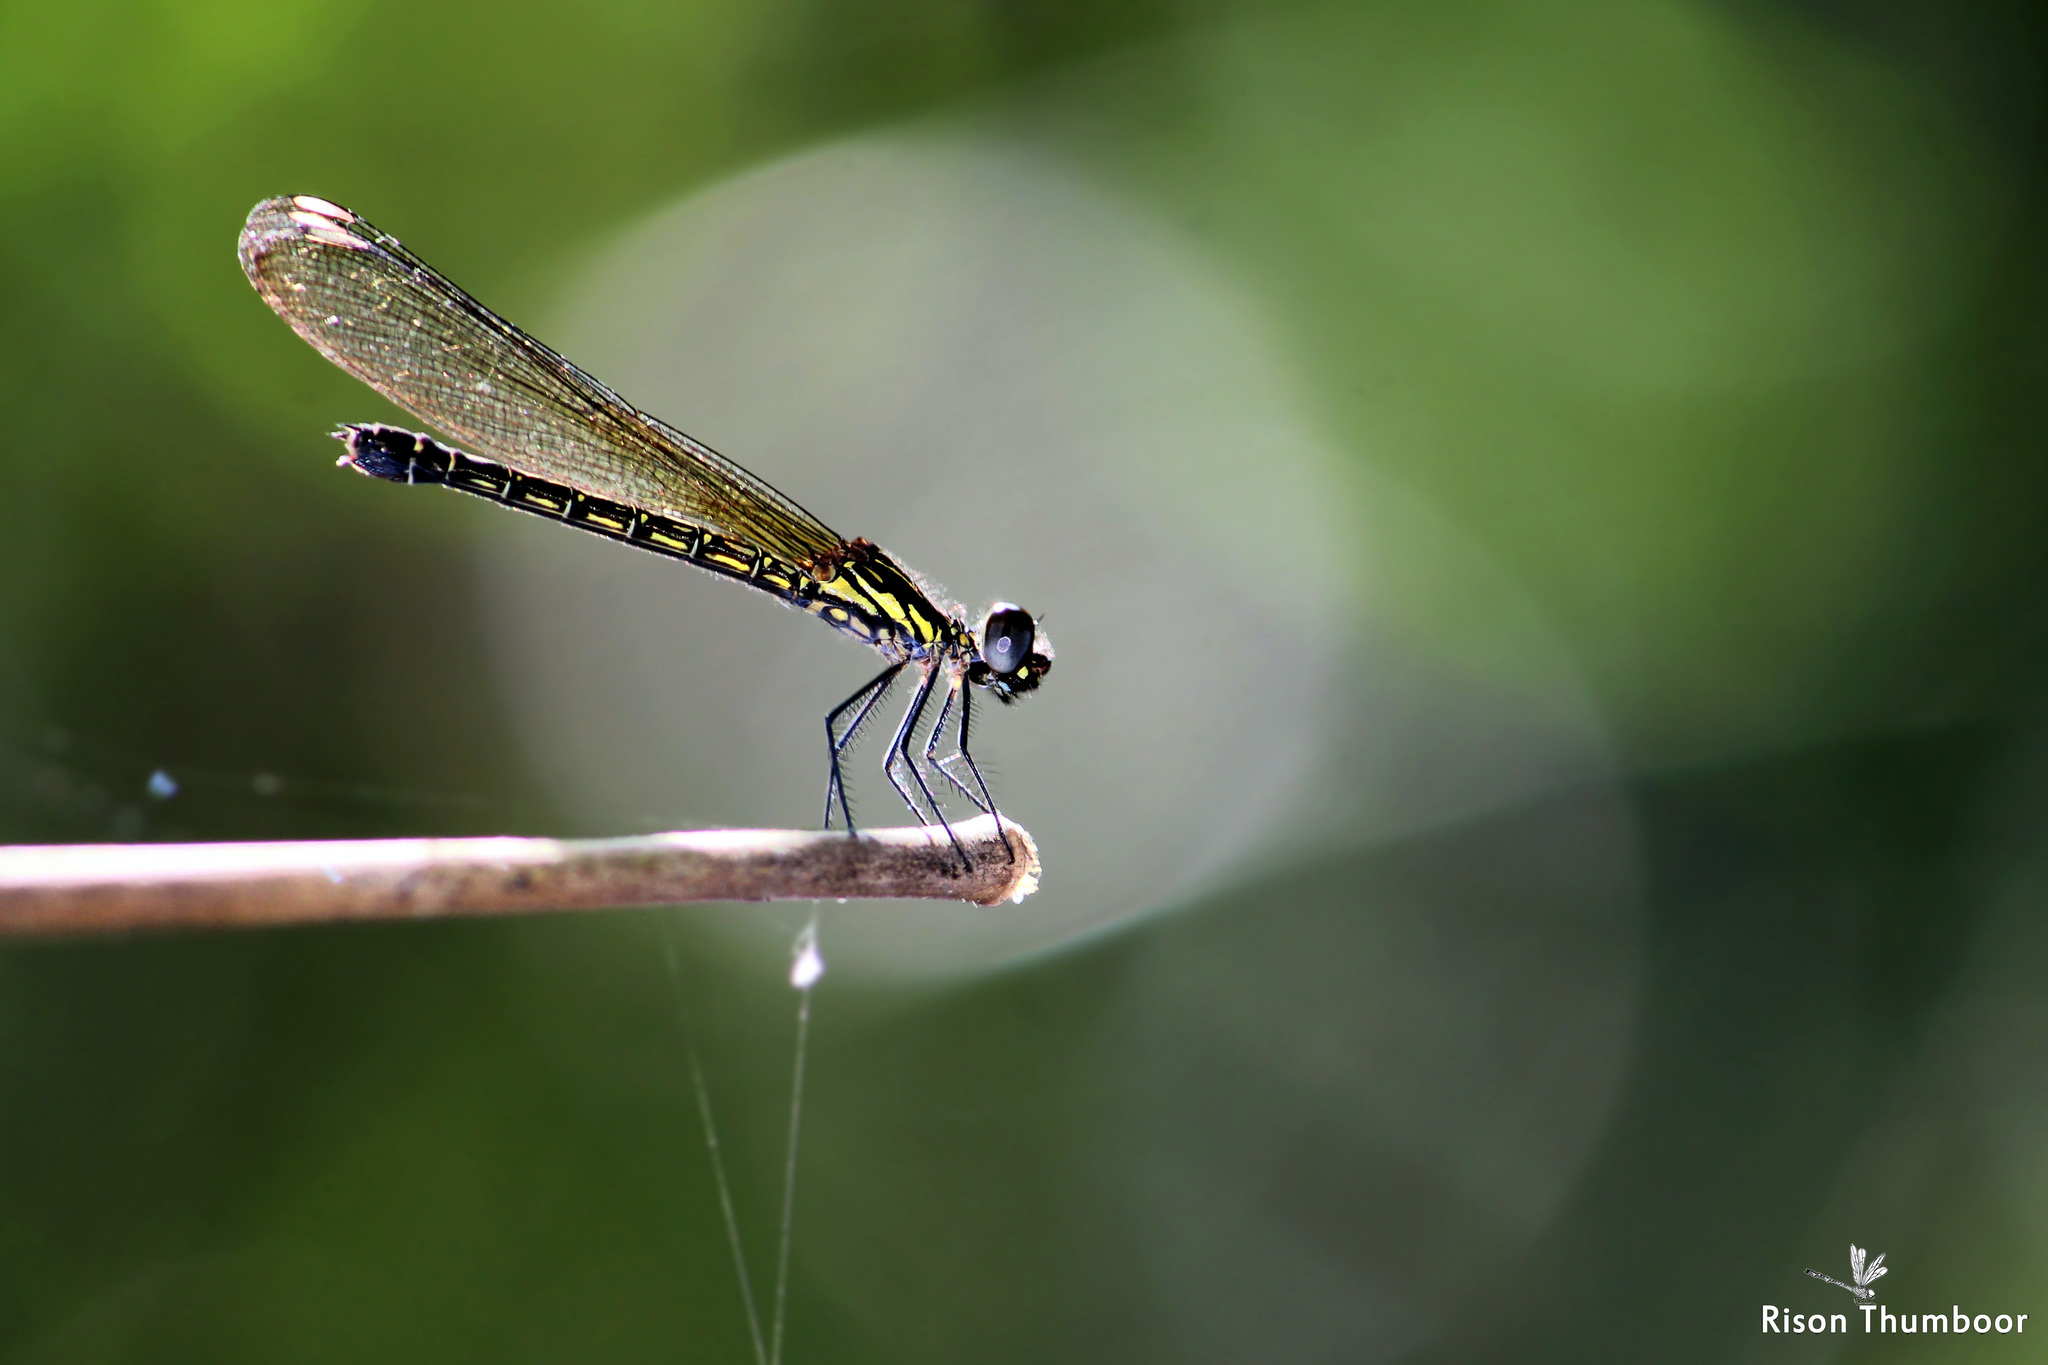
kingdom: Animalia
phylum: Arthropoda
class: Insecta
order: Odonata
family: Chlorocyphidae
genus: Heliocypha
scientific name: Heliocypha bisignata
